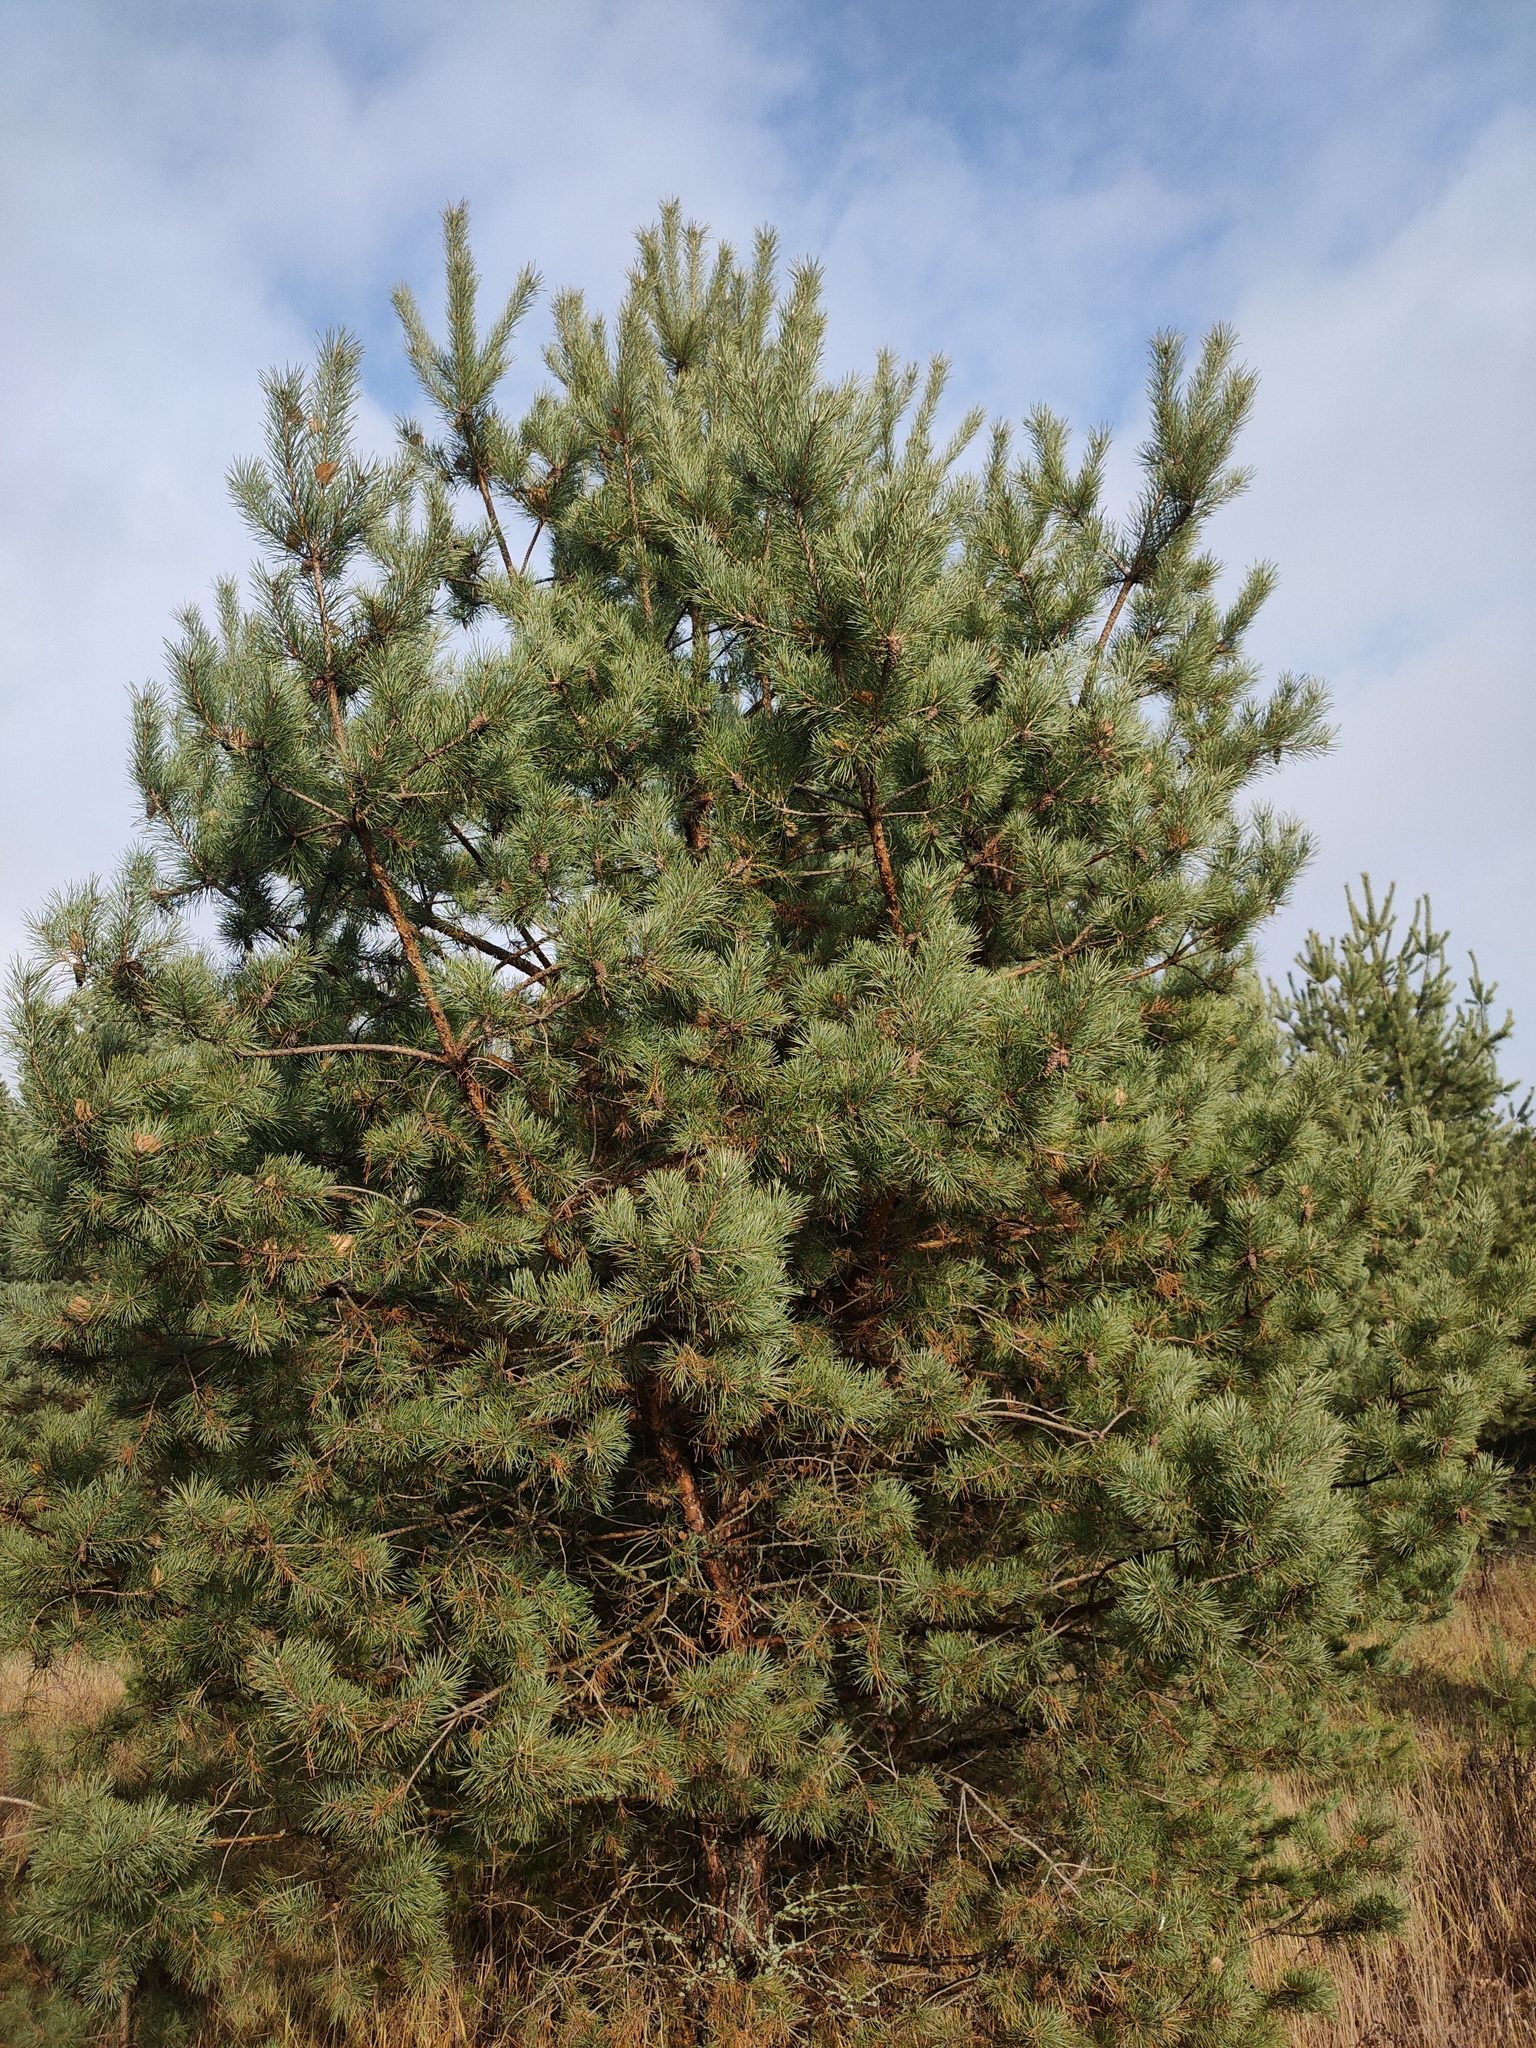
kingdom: Plantae
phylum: Tracheophyta
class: Pinopsida
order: Pinales
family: Pinaceae
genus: Pinus
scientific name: Pinus sylvestris
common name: Scots pine
